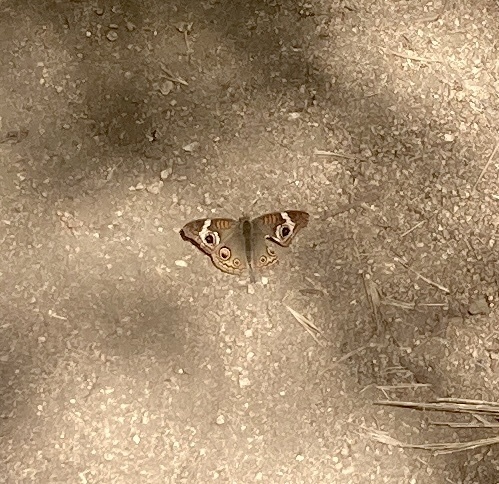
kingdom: Animalia
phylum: Arthropoda
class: Insecta
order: Lepidoptera
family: Nymphalidae
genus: Junonia
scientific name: Junonia grisea
